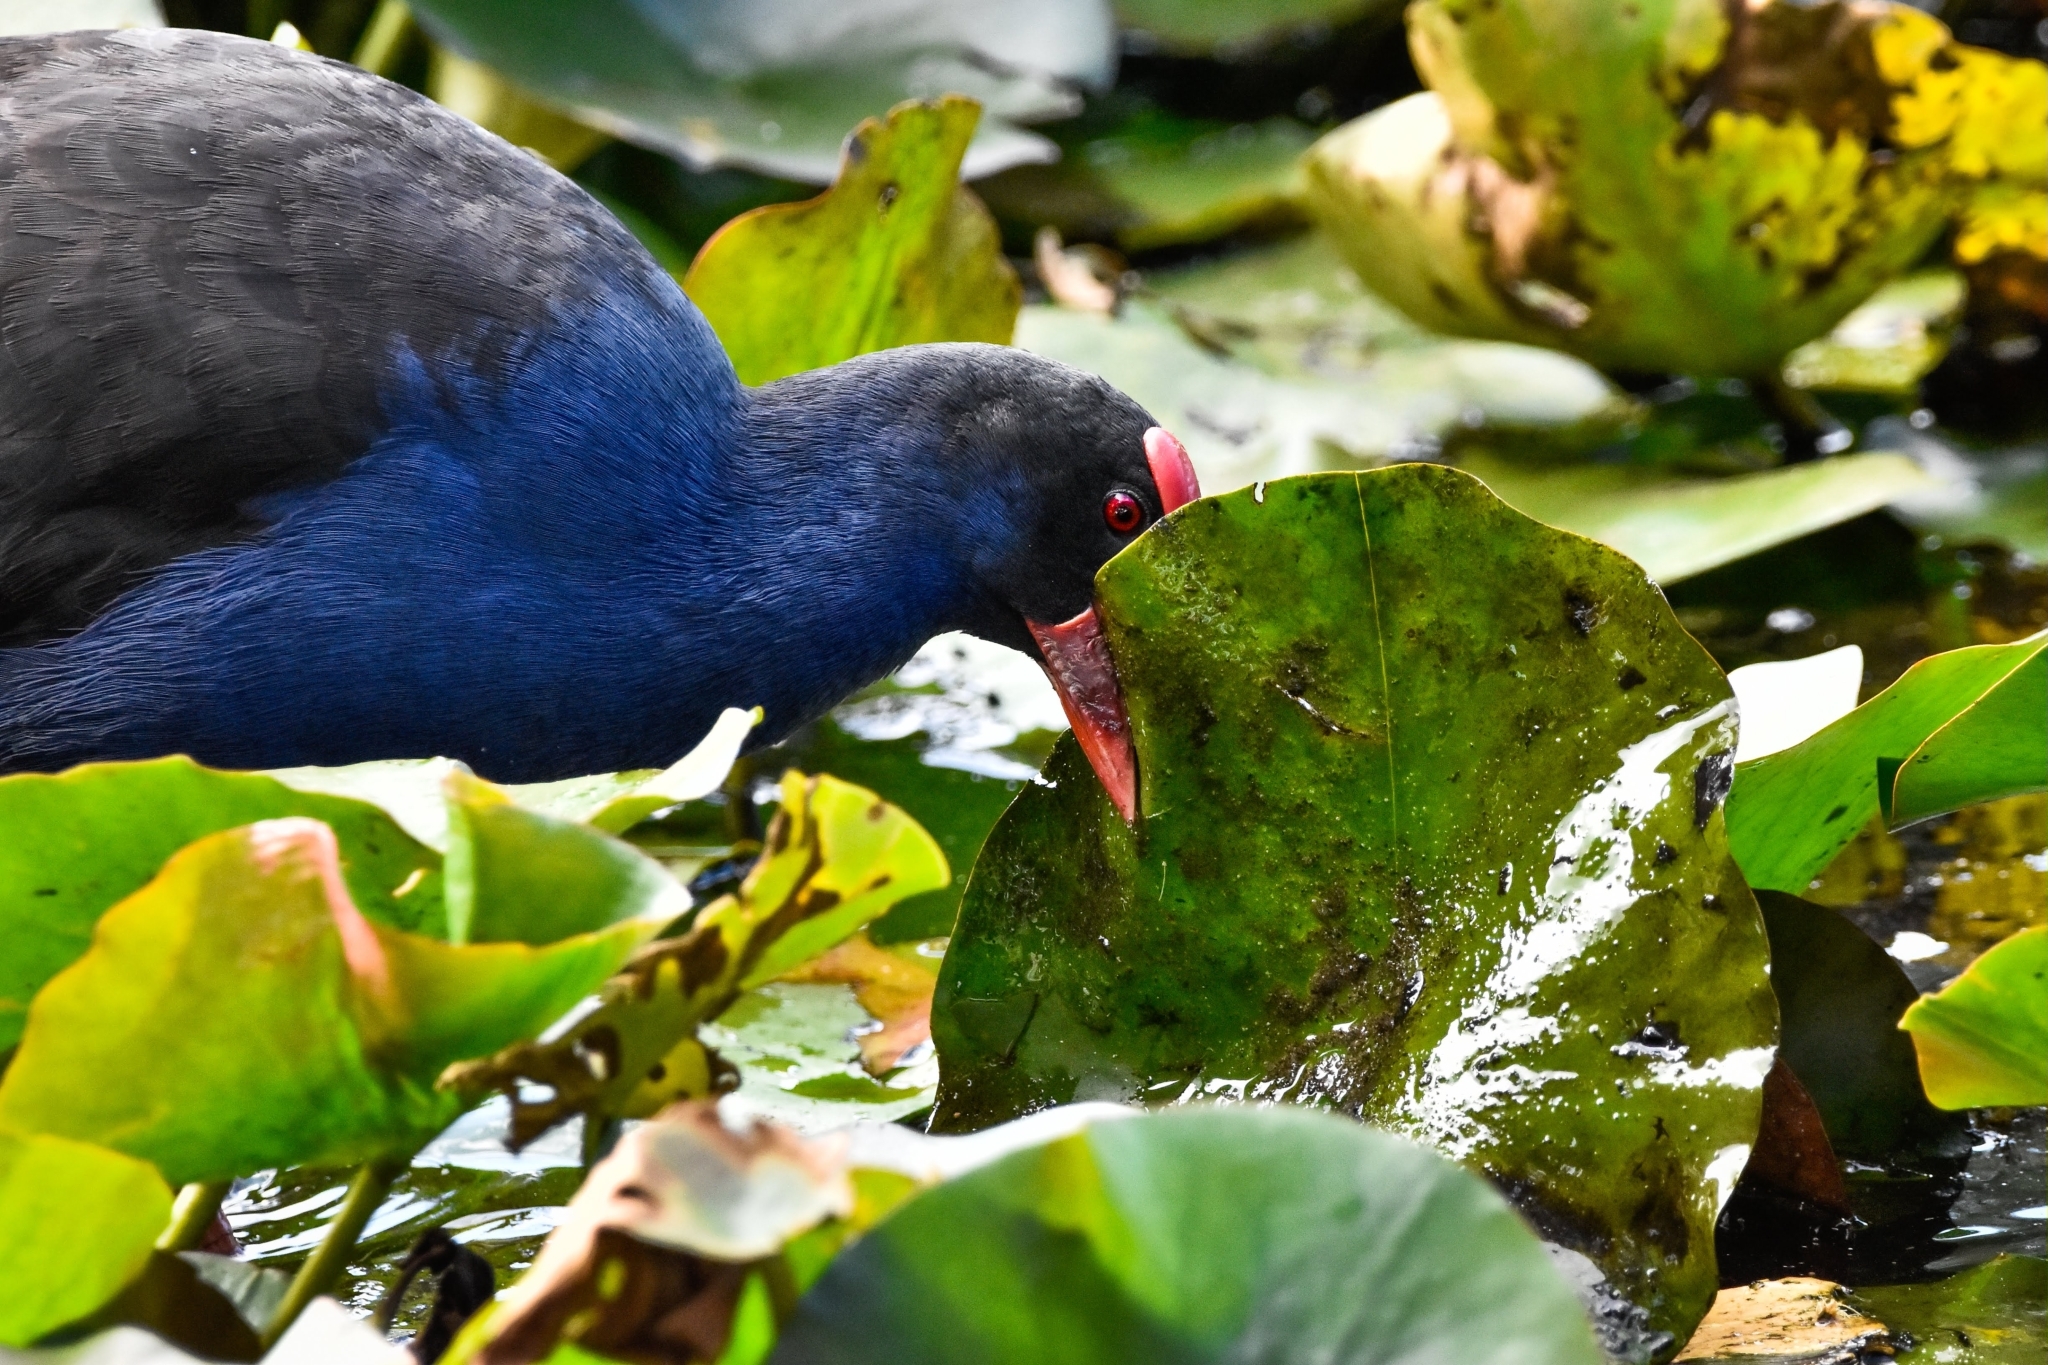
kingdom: Animalia
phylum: Chordata
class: Aves
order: Gruiformes
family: Rallidae
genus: Porphyrio
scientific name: Porphyrio melanotus
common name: Australasian swamphen
